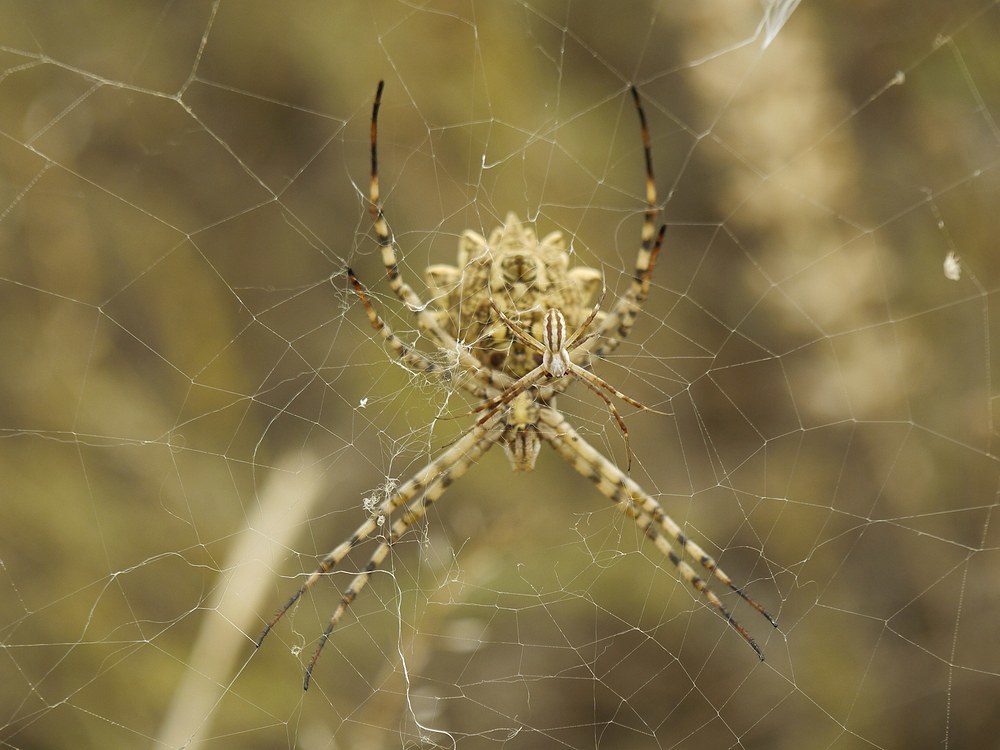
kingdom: Animalia
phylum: Arthropoda
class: Arachnida
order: Araneae
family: Araneidae
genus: Argiope
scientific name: Argiope lobata
